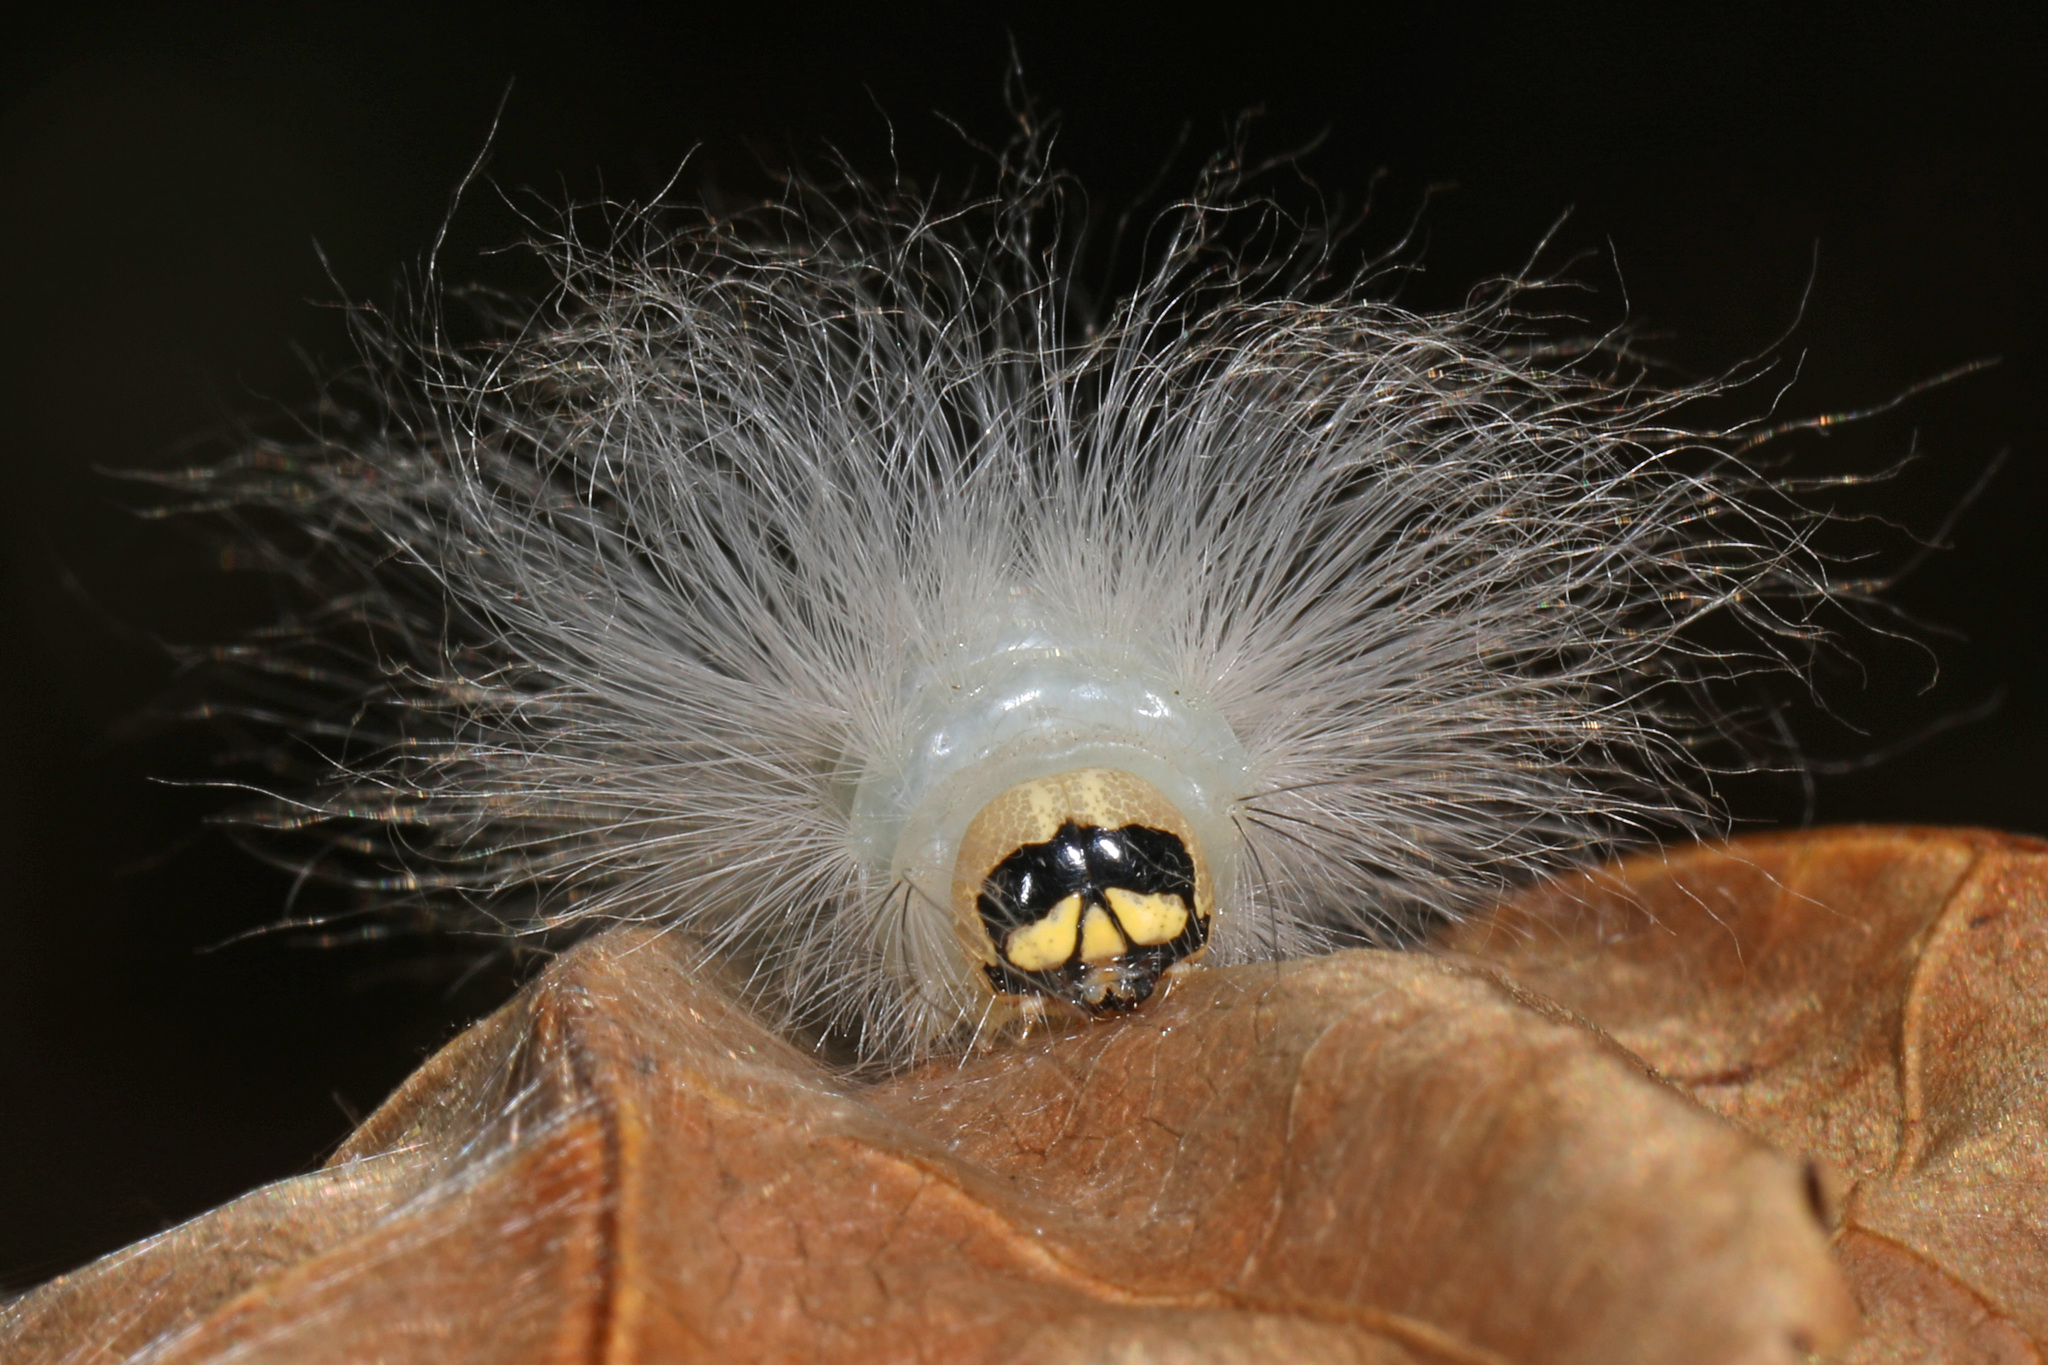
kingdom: Animalia
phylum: Arthropoda
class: Insecta
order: Lepidoptera
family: Noctuidae
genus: Charadra
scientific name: Charadra deridens
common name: Marbled tuffet
